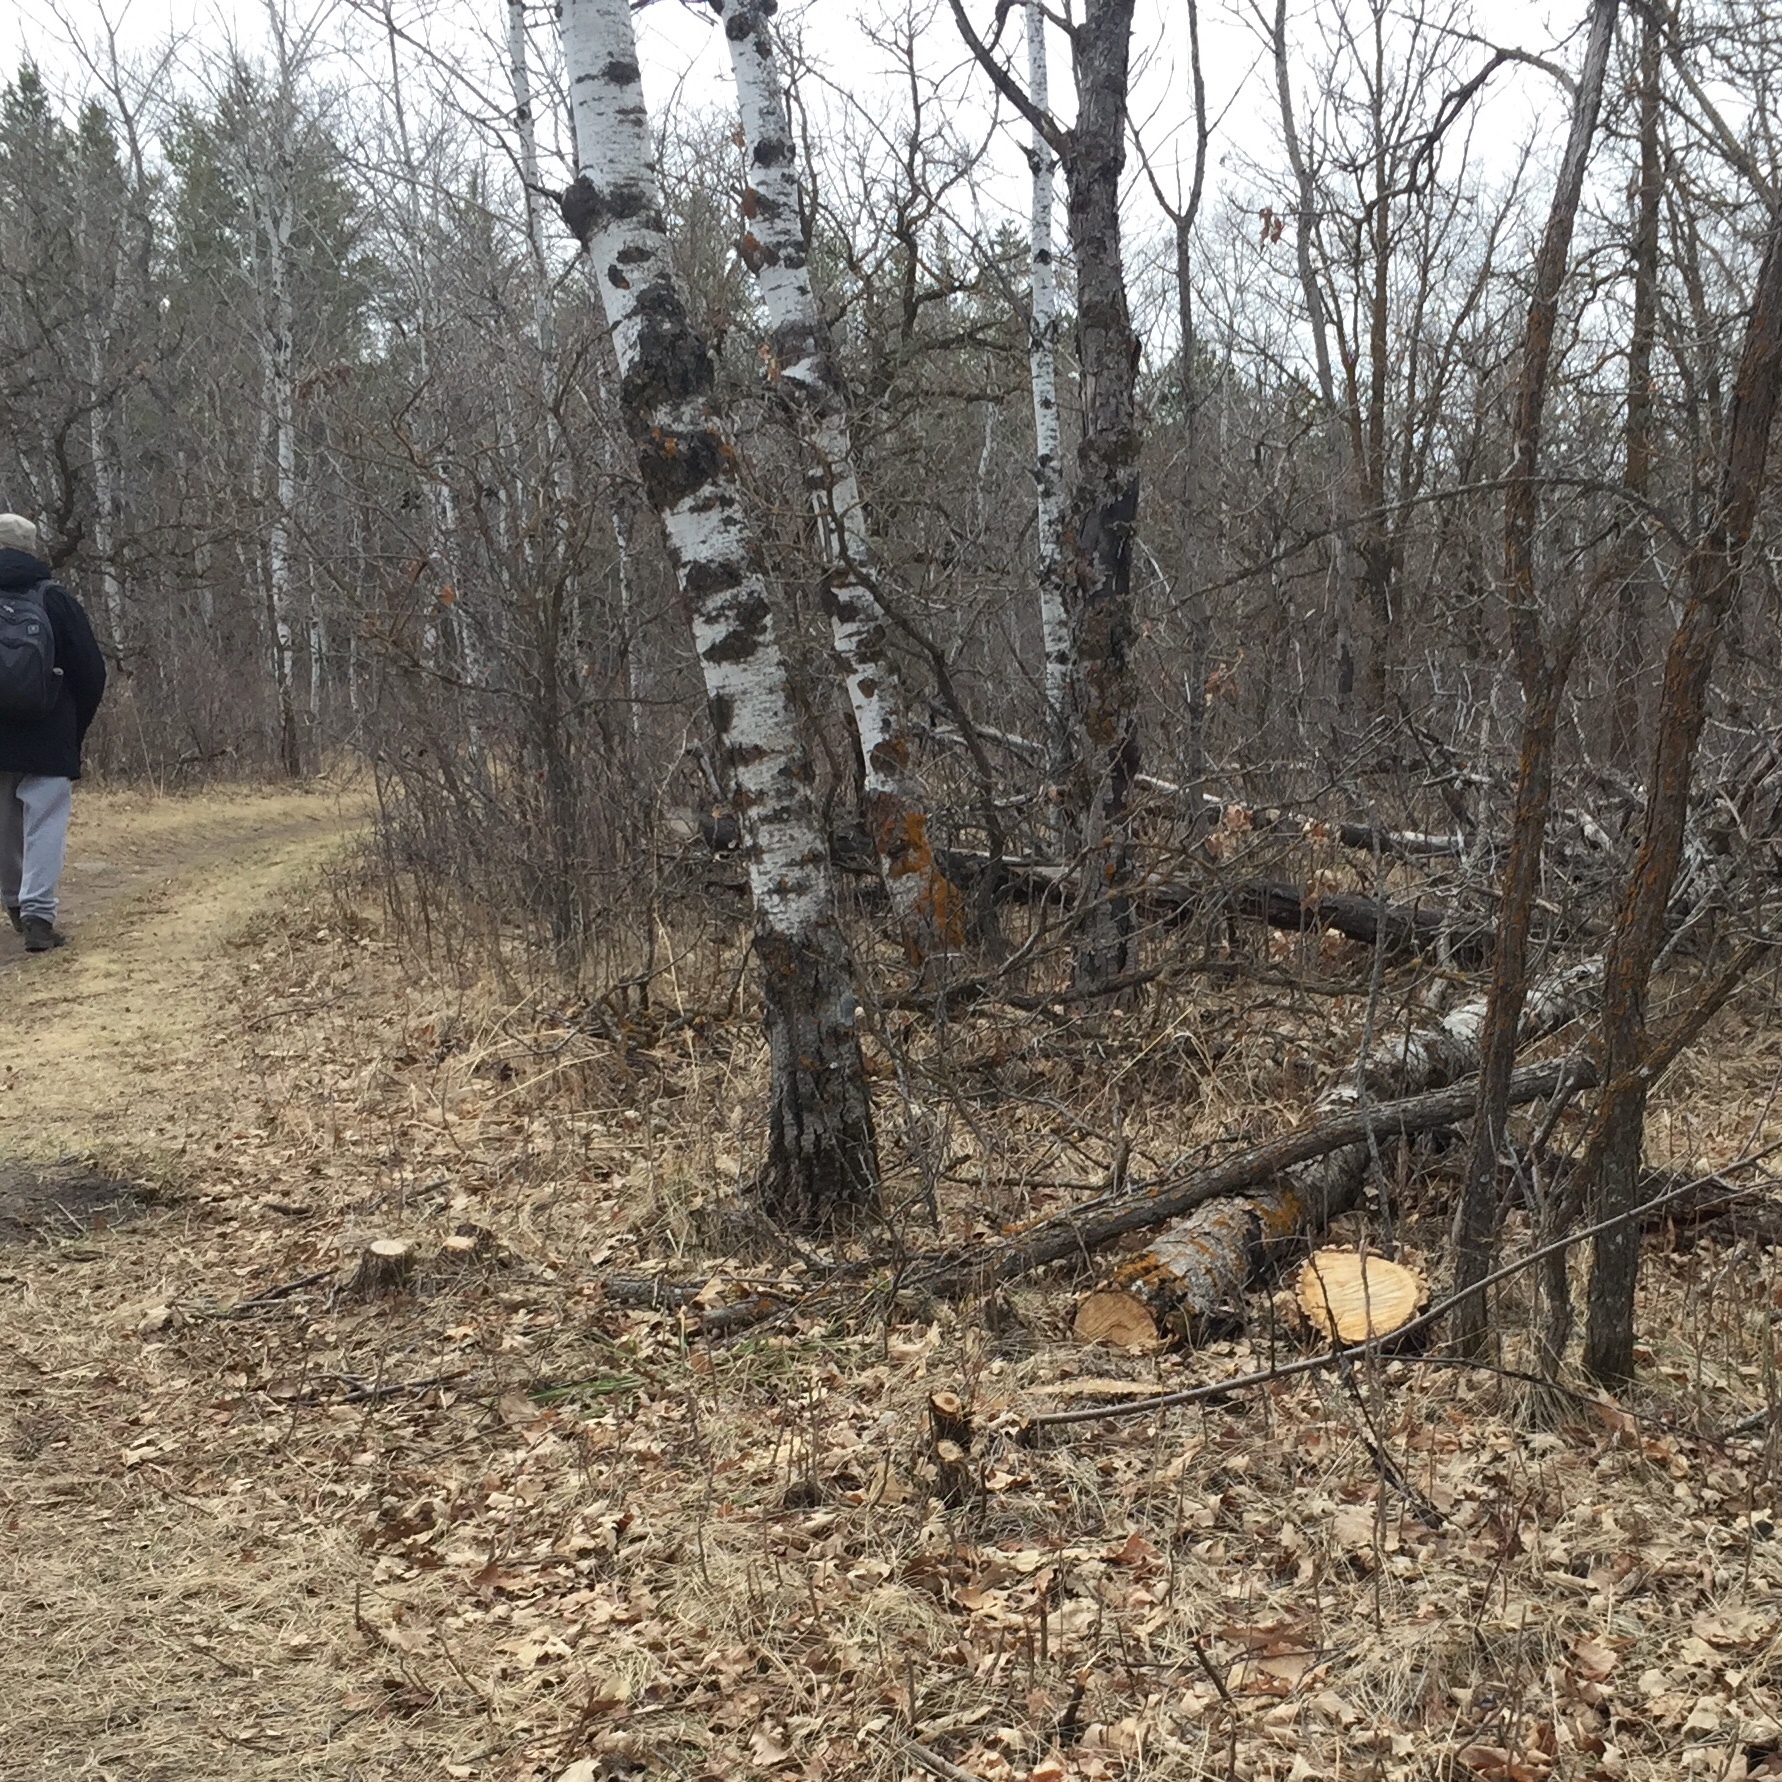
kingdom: Plantae
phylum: Tracheophyta
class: Magnoliopsida
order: Fagales
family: Fagaceae
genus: Quercus
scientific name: Quercus macrocarpa
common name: Bur oak
